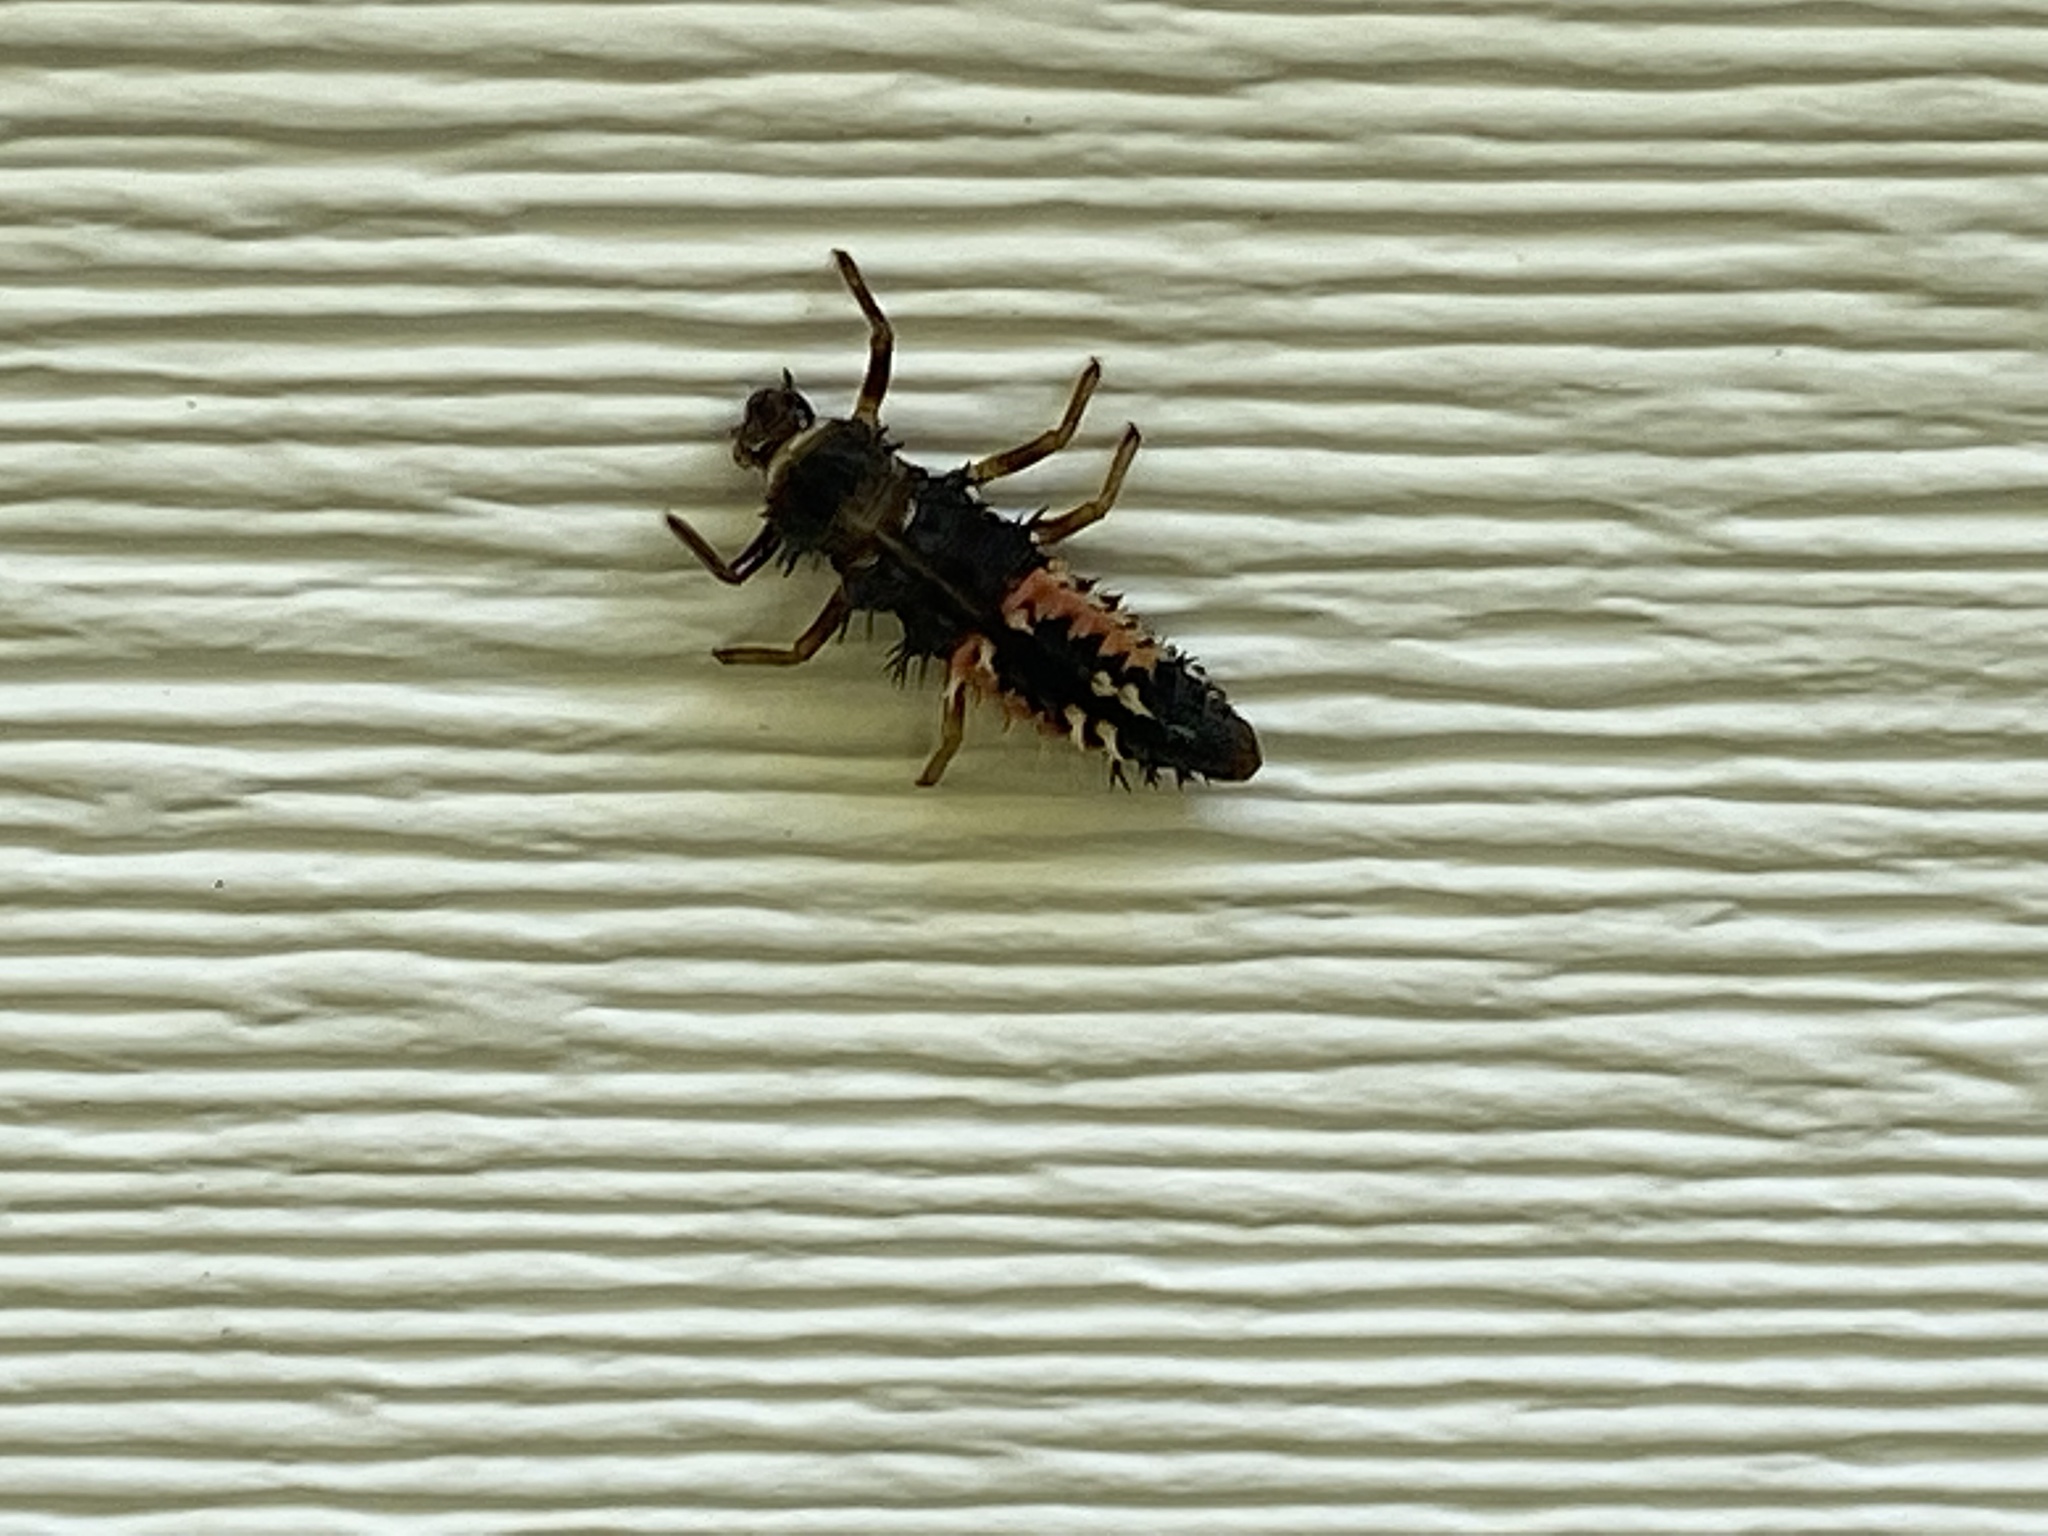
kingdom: Animalia
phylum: Arthropoda
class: Insecta
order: Coleoptera
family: Coccinellidae
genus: Harmonia
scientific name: Harmonia axyridis
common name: Harlequin ladybird
